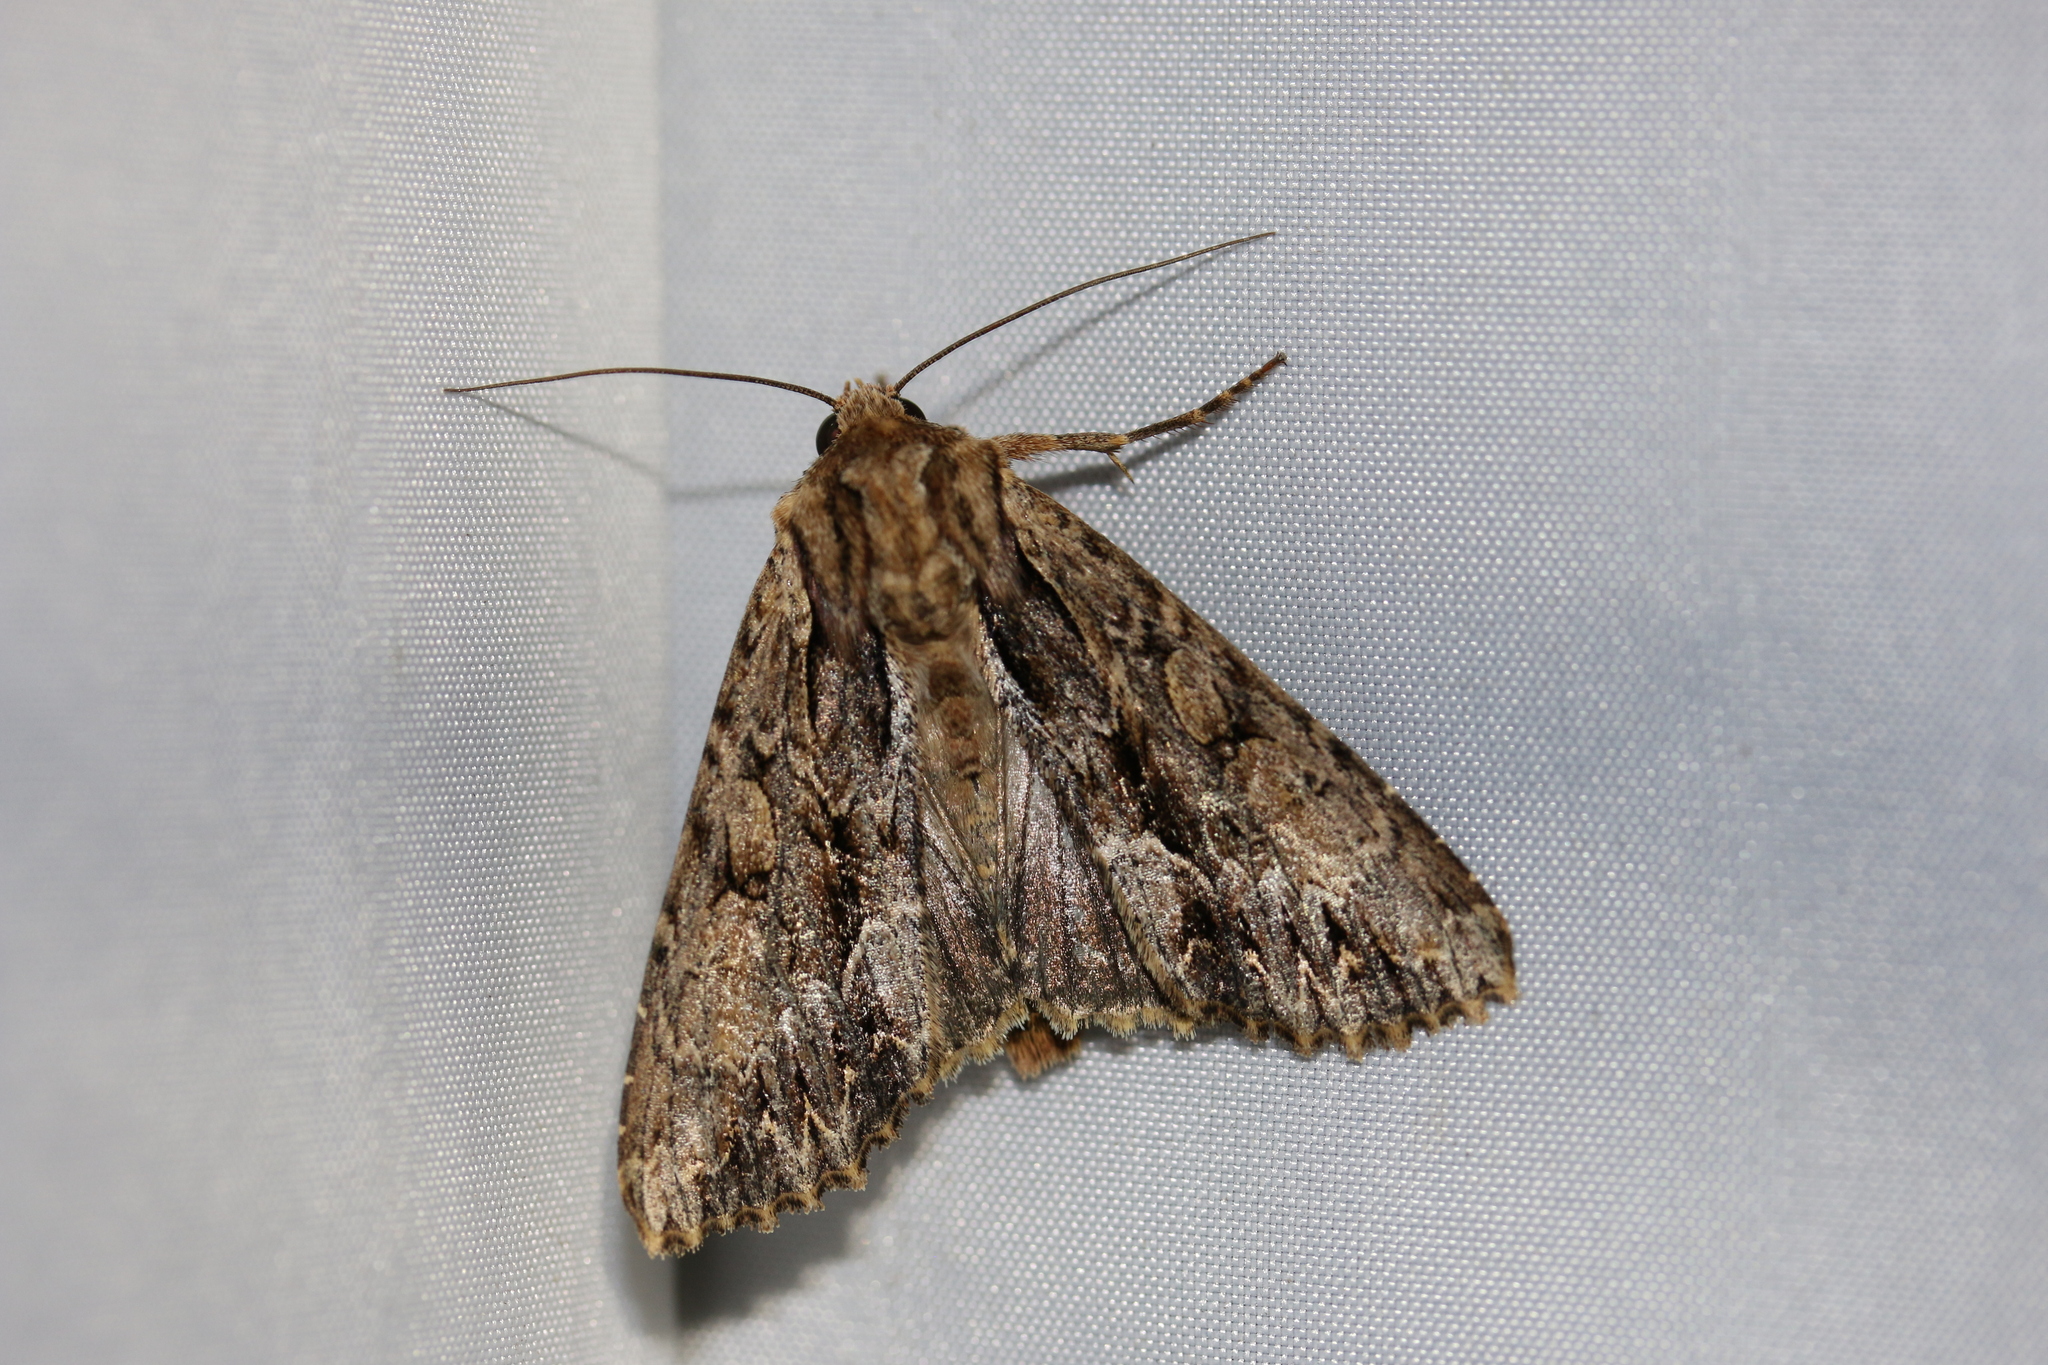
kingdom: Animalia
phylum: Arthropoda
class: Insecta
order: Lepidoptera
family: Noctuidae
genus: Apamea
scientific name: Apamea monoglypha
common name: Dark arches
